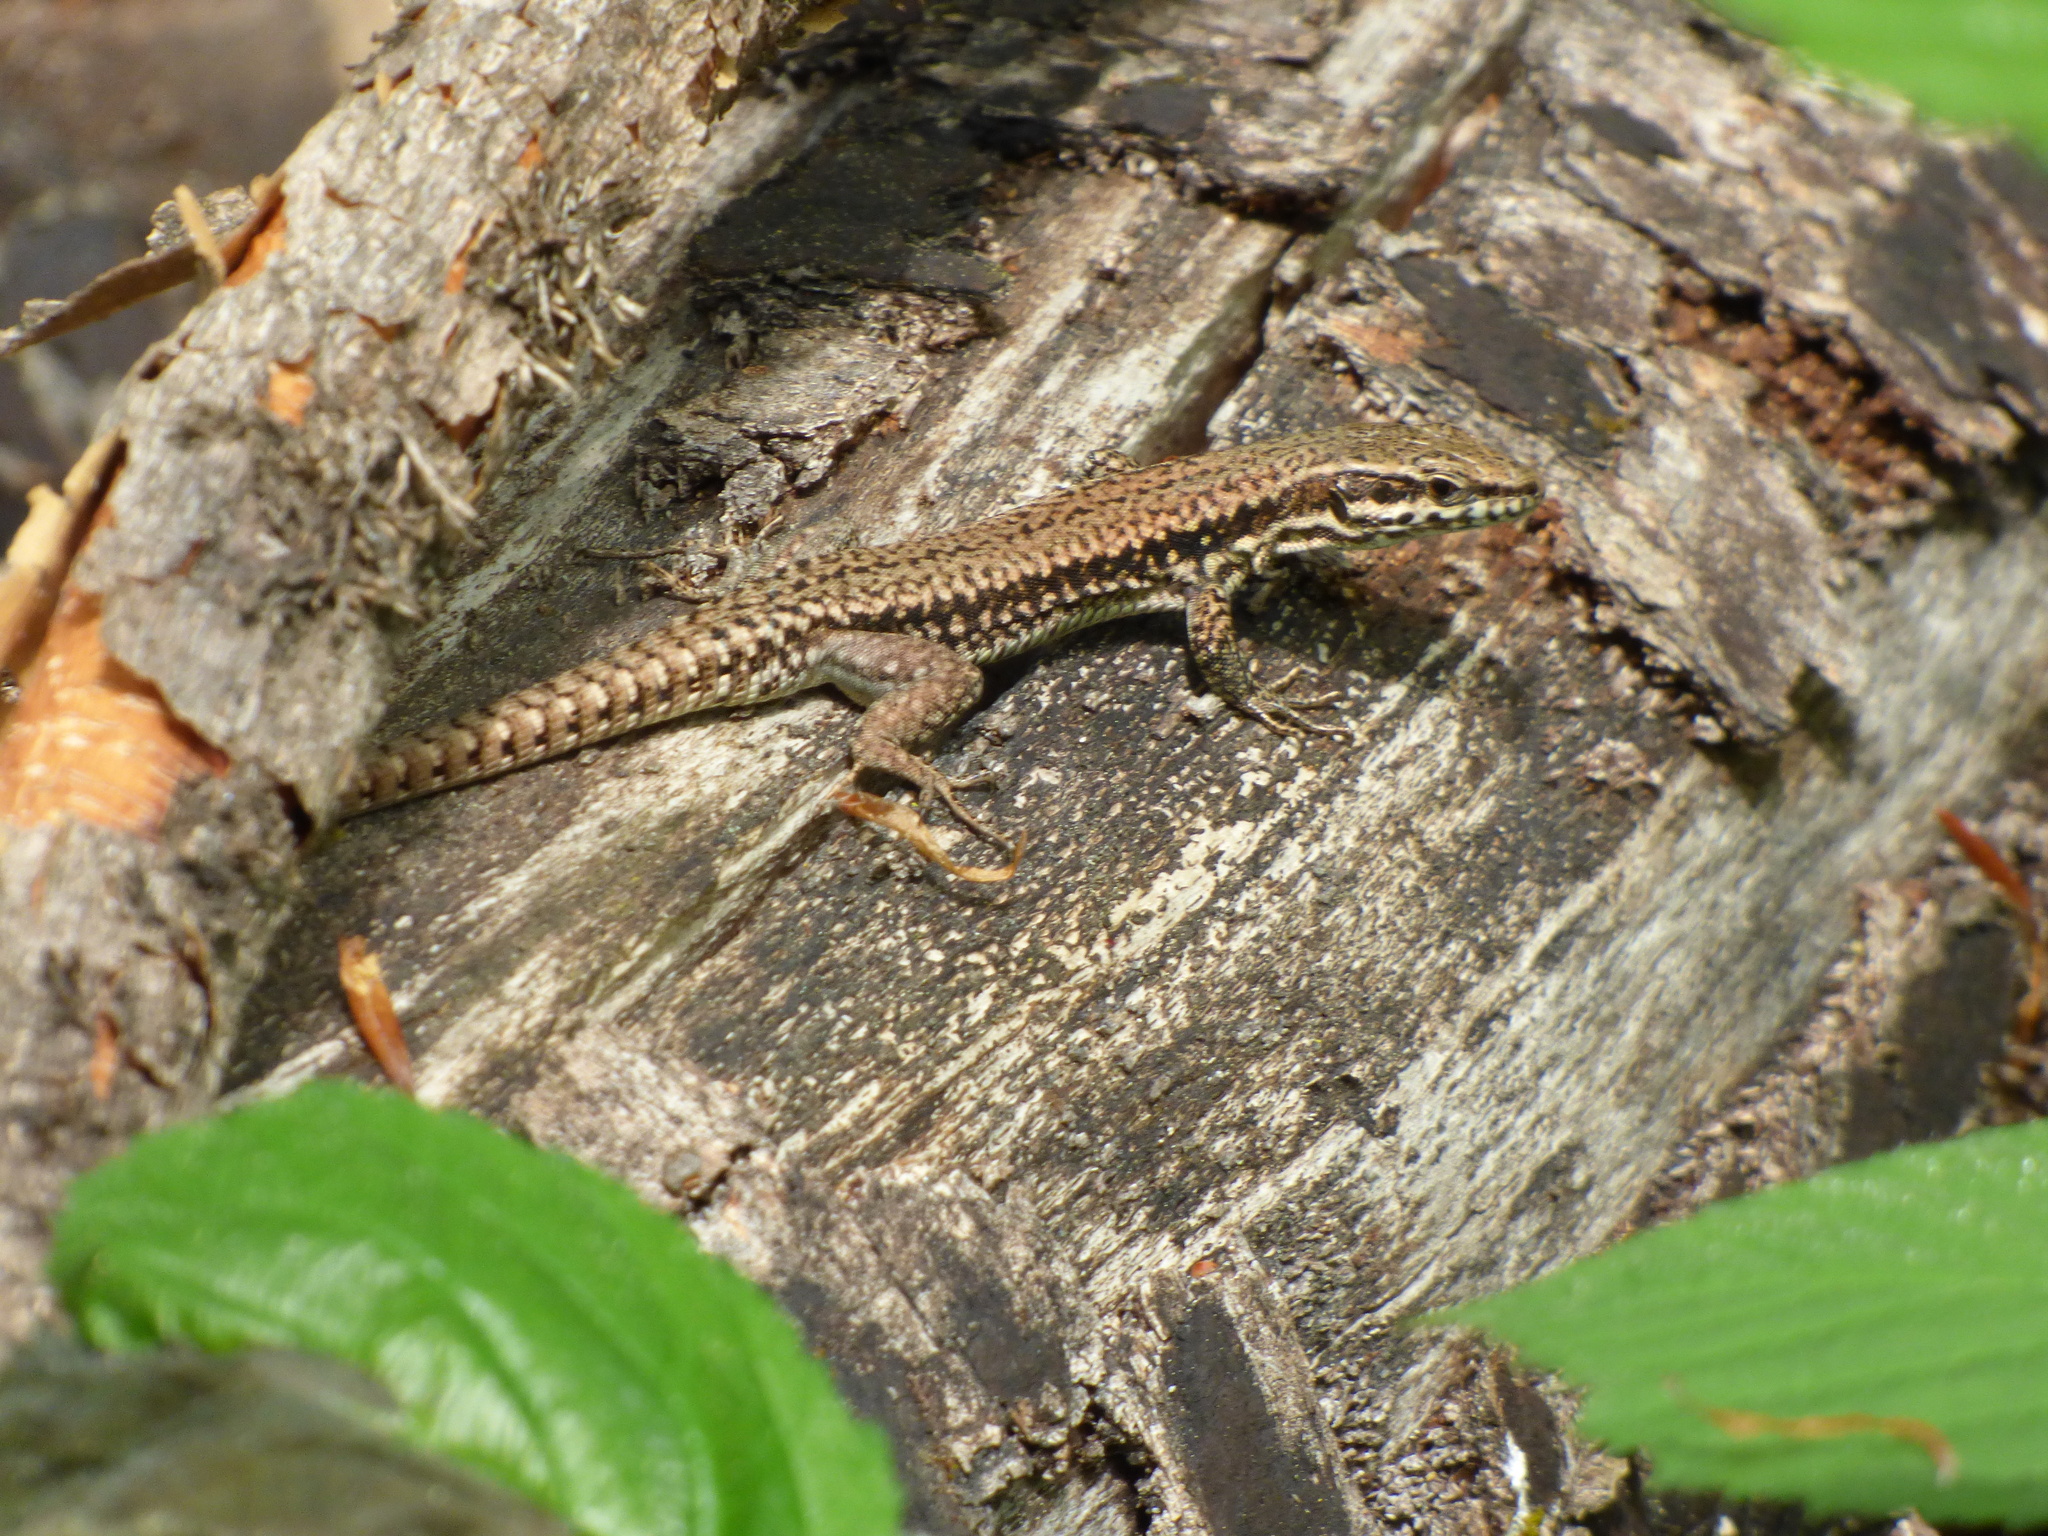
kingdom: Animalia
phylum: Chordata
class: Squamata
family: Lacertidae
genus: Podarcis
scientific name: Podarcis muralis
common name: Common wall lizard
